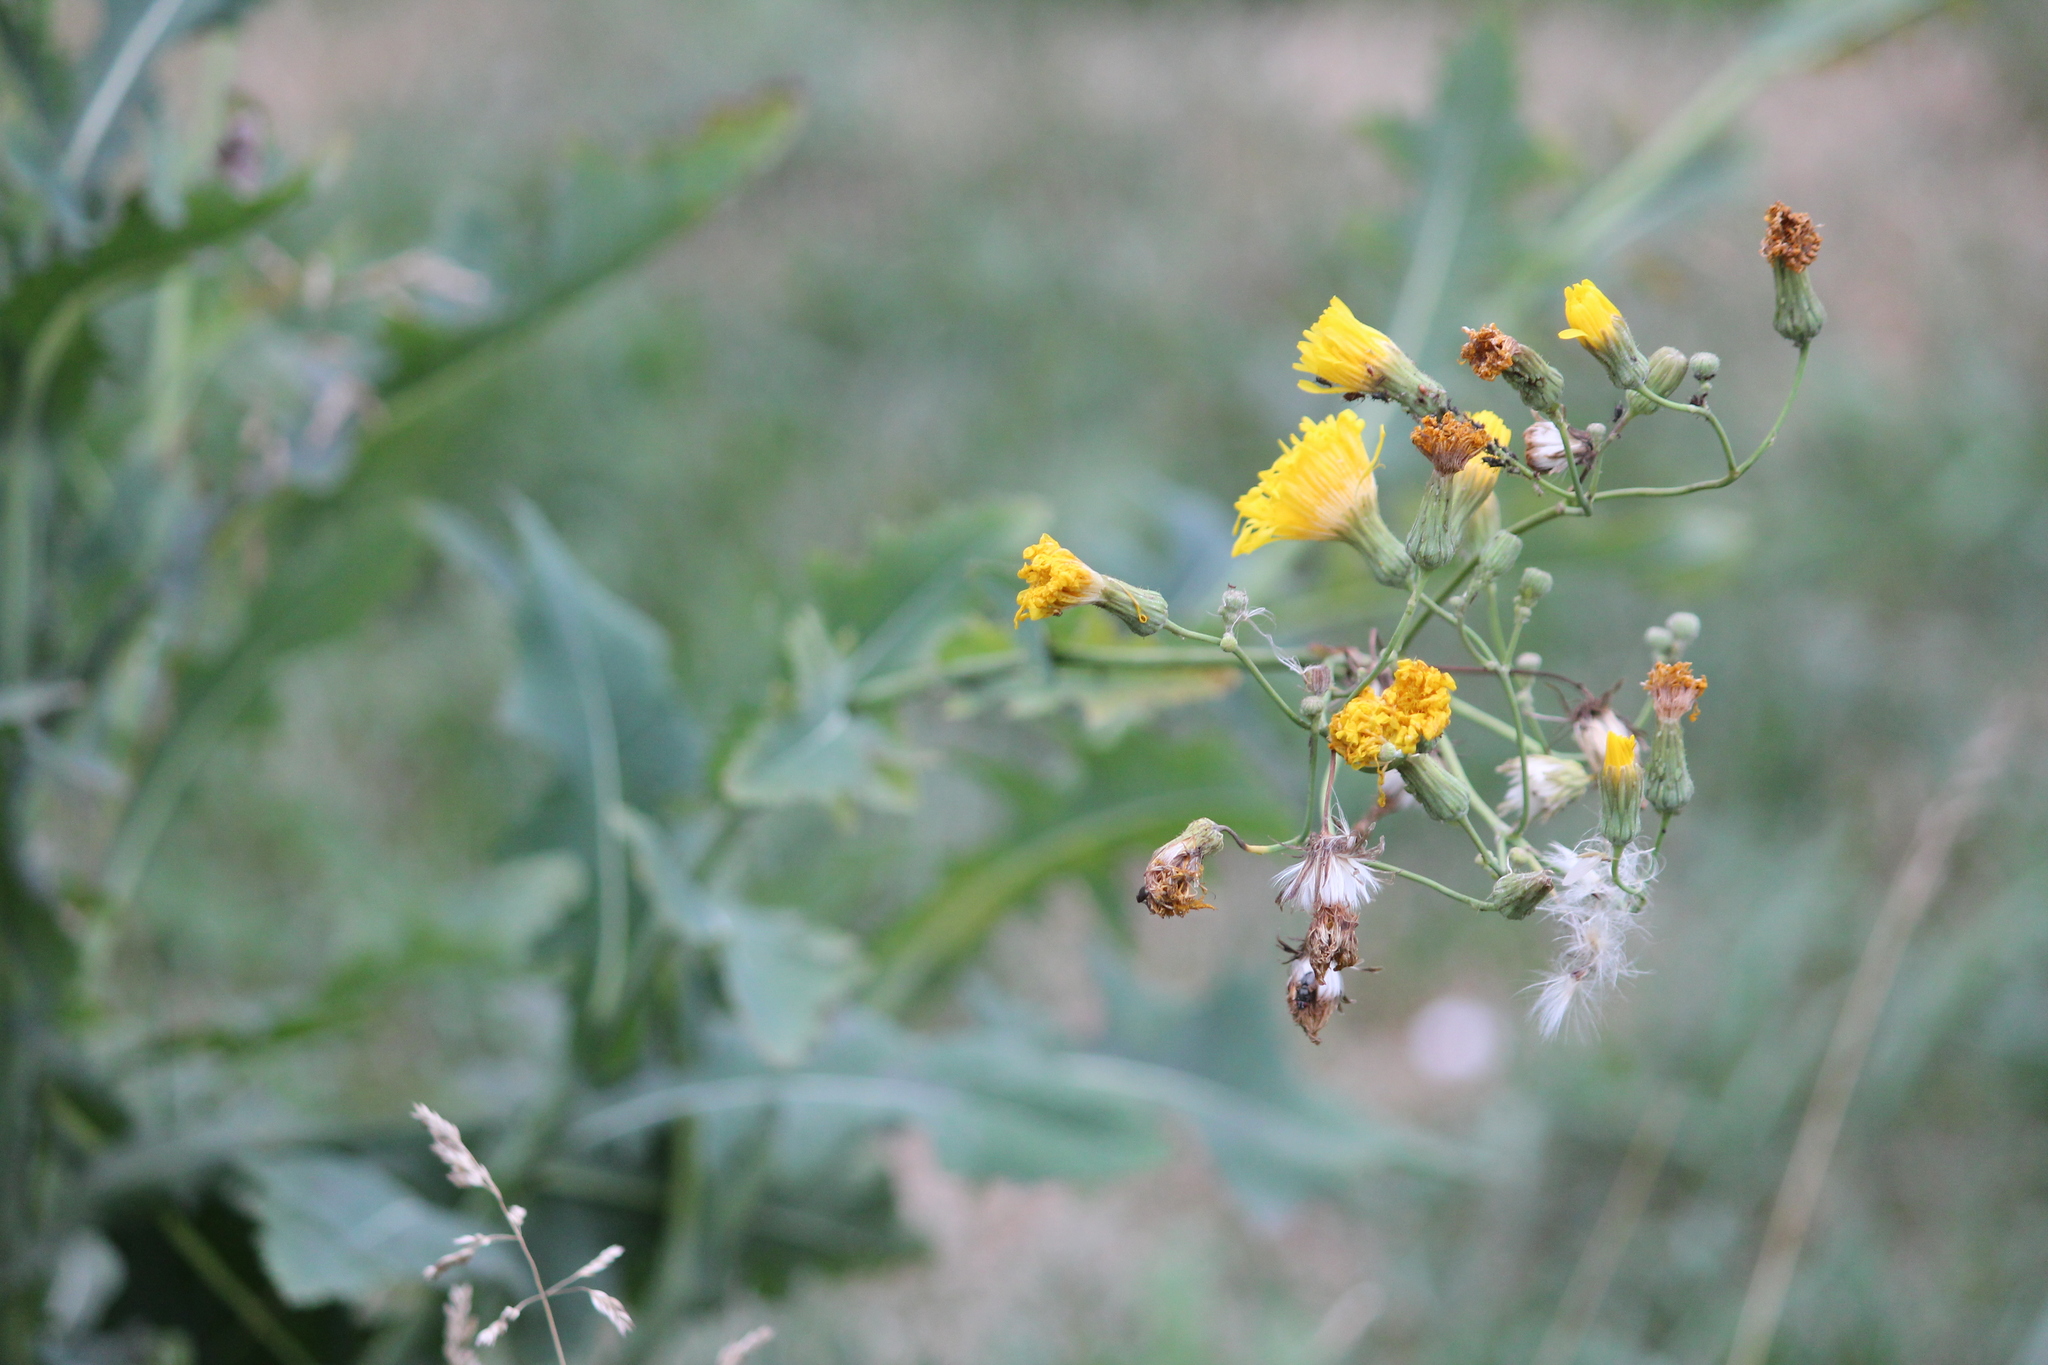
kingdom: Plantae
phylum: Tracheophyta
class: Magnoliopsida
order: Asterales
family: Asteraceae
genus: Sonchus
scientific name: Sonchus arvensis
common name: Perennial sow-thistle
